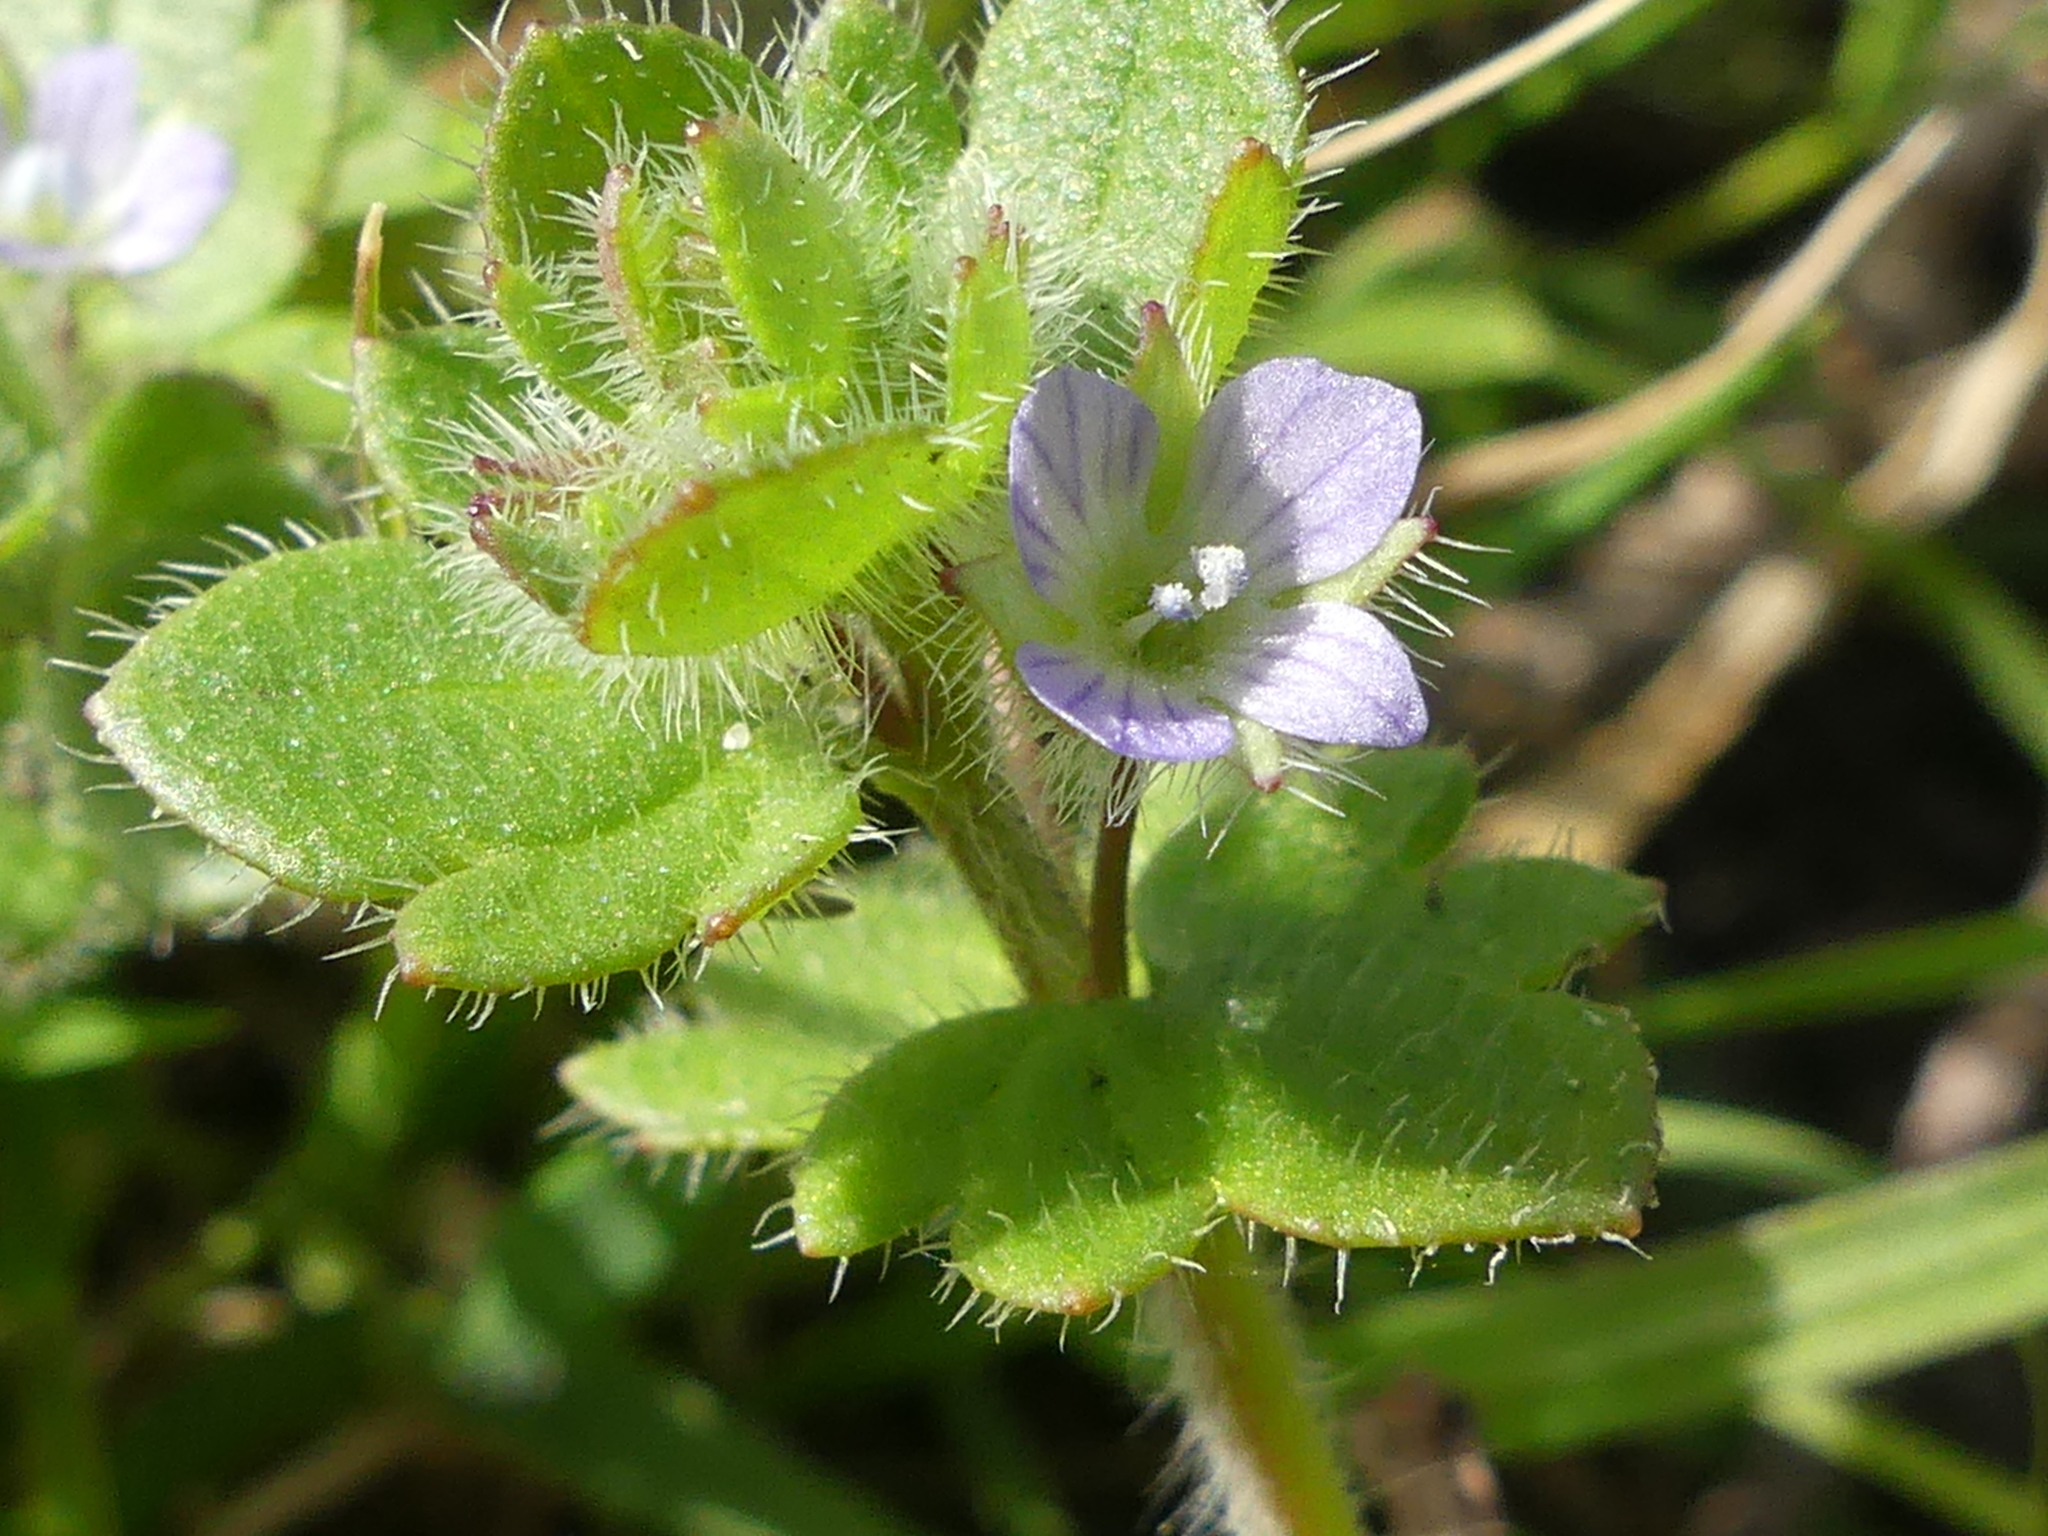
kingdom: Plantae
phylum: Tracheophyta
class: Magnoliopsida
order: Lamiales
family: Plantaginaceae
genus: Veronica
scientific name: Veronica hederifolia
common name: Ivy-leaved speedwell
